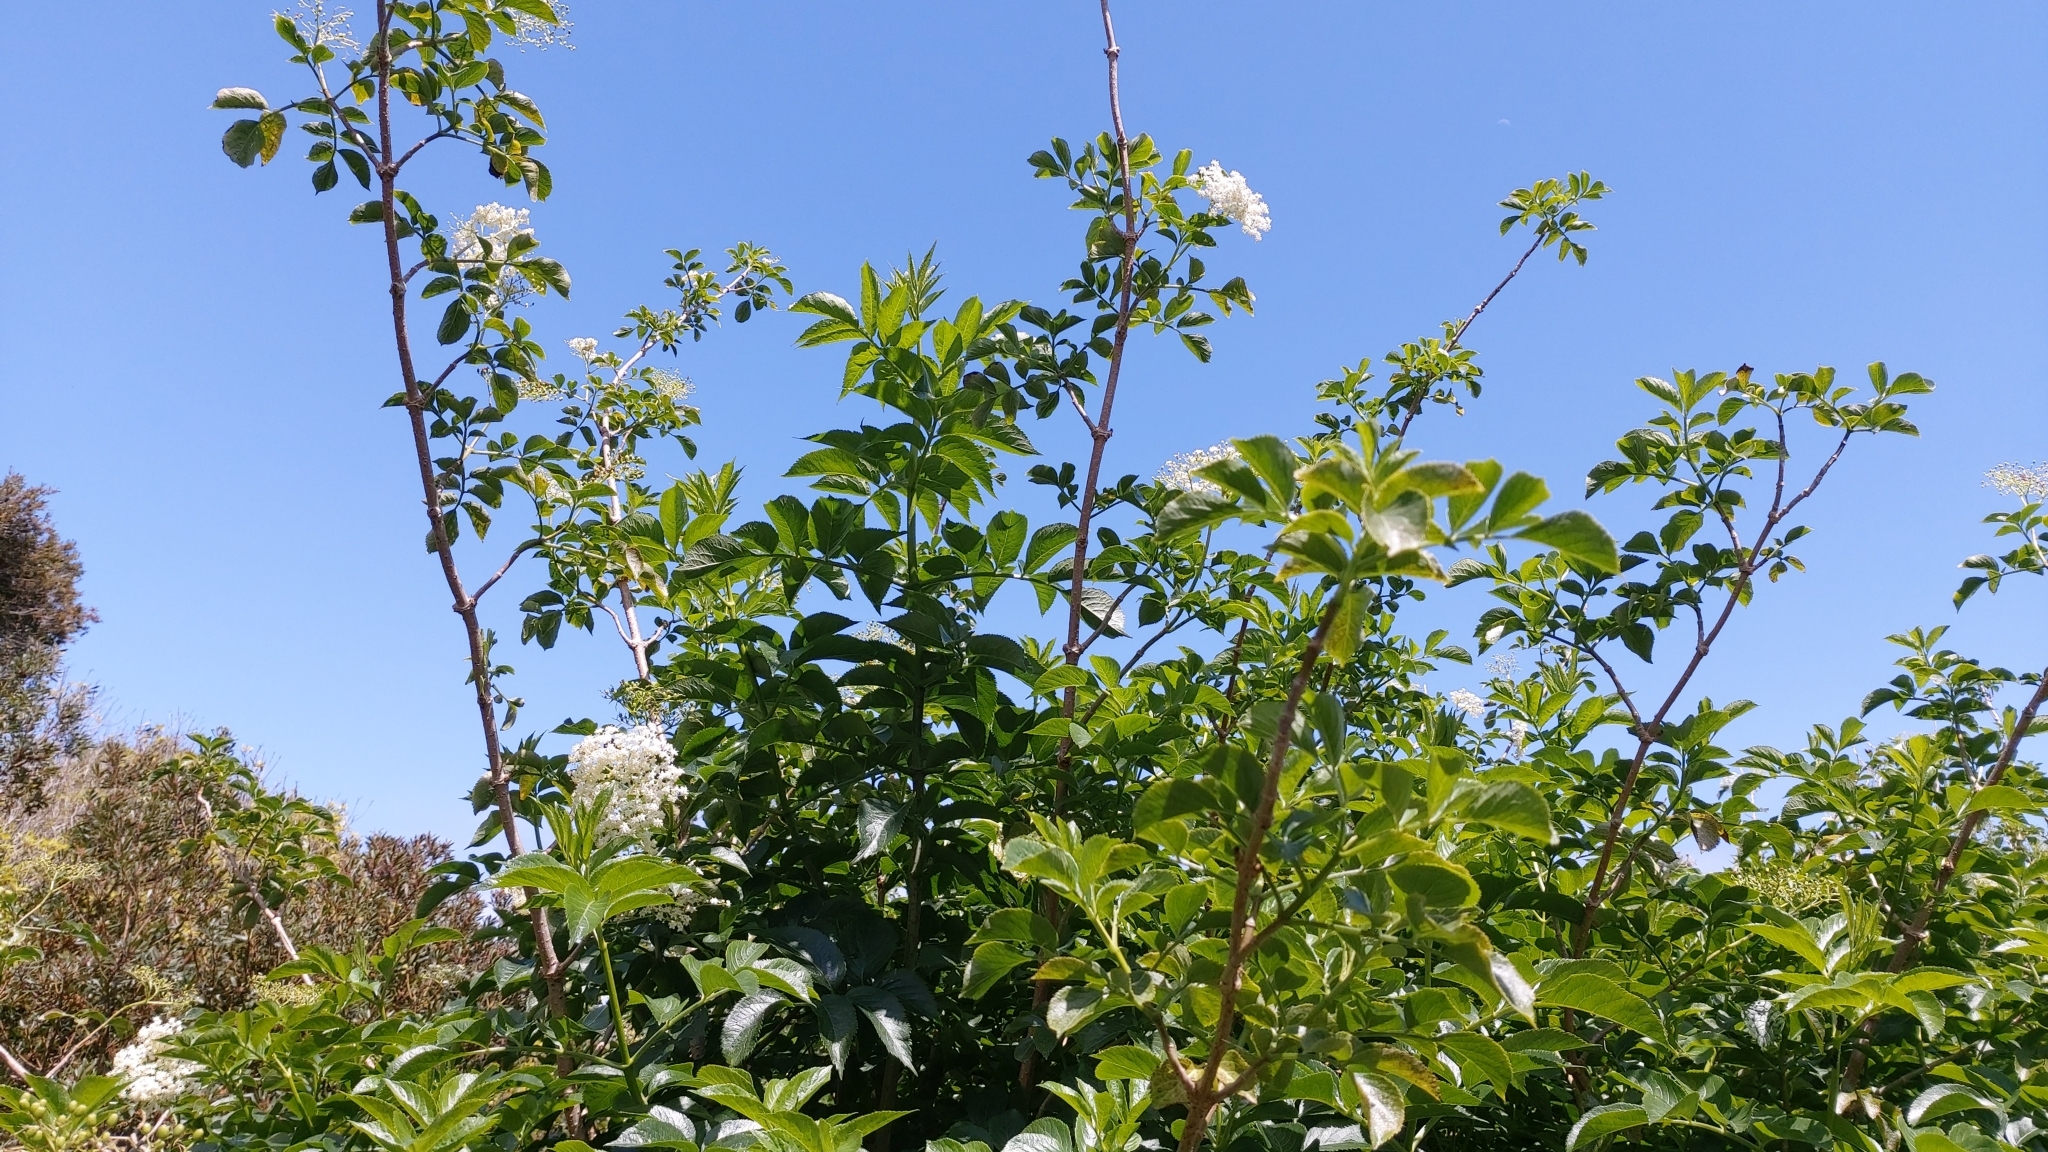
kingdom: Plantae
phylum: Tracheophyta
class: Magnoliopsida
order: Dipsacales
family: Viburnaceae
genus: Sambucus
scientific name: Sambucus nigra
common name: Elder
